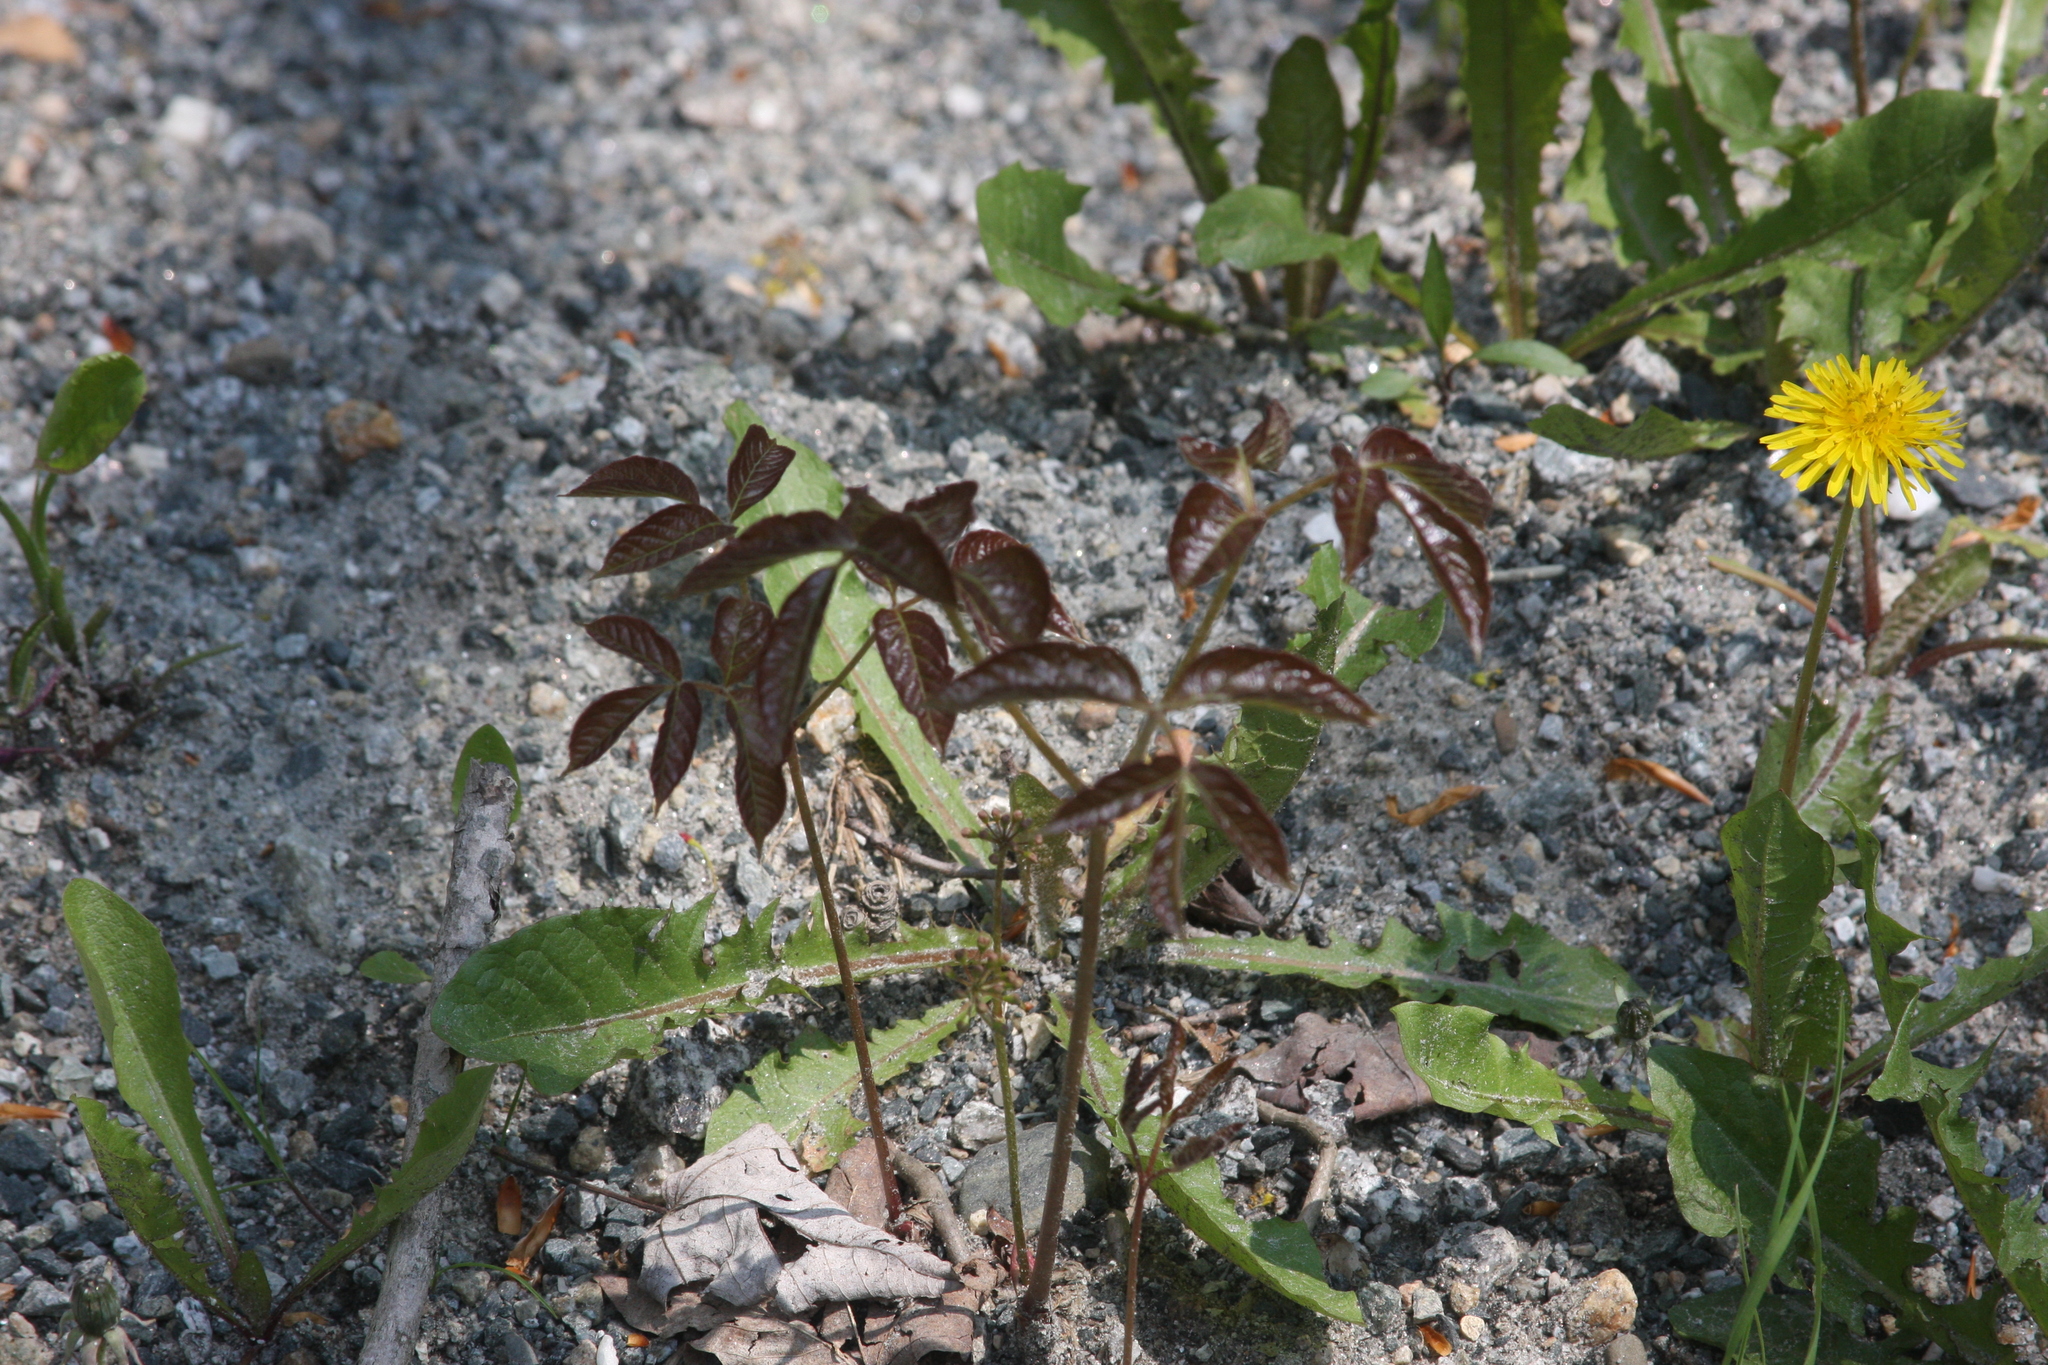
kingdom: Plantae
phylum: Tracheophyta
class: Magnoliopsida
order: Apiales
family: Araliaceae
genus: Aralia
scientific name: Aralia nudicaulis
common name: Wild sarsaparilla
